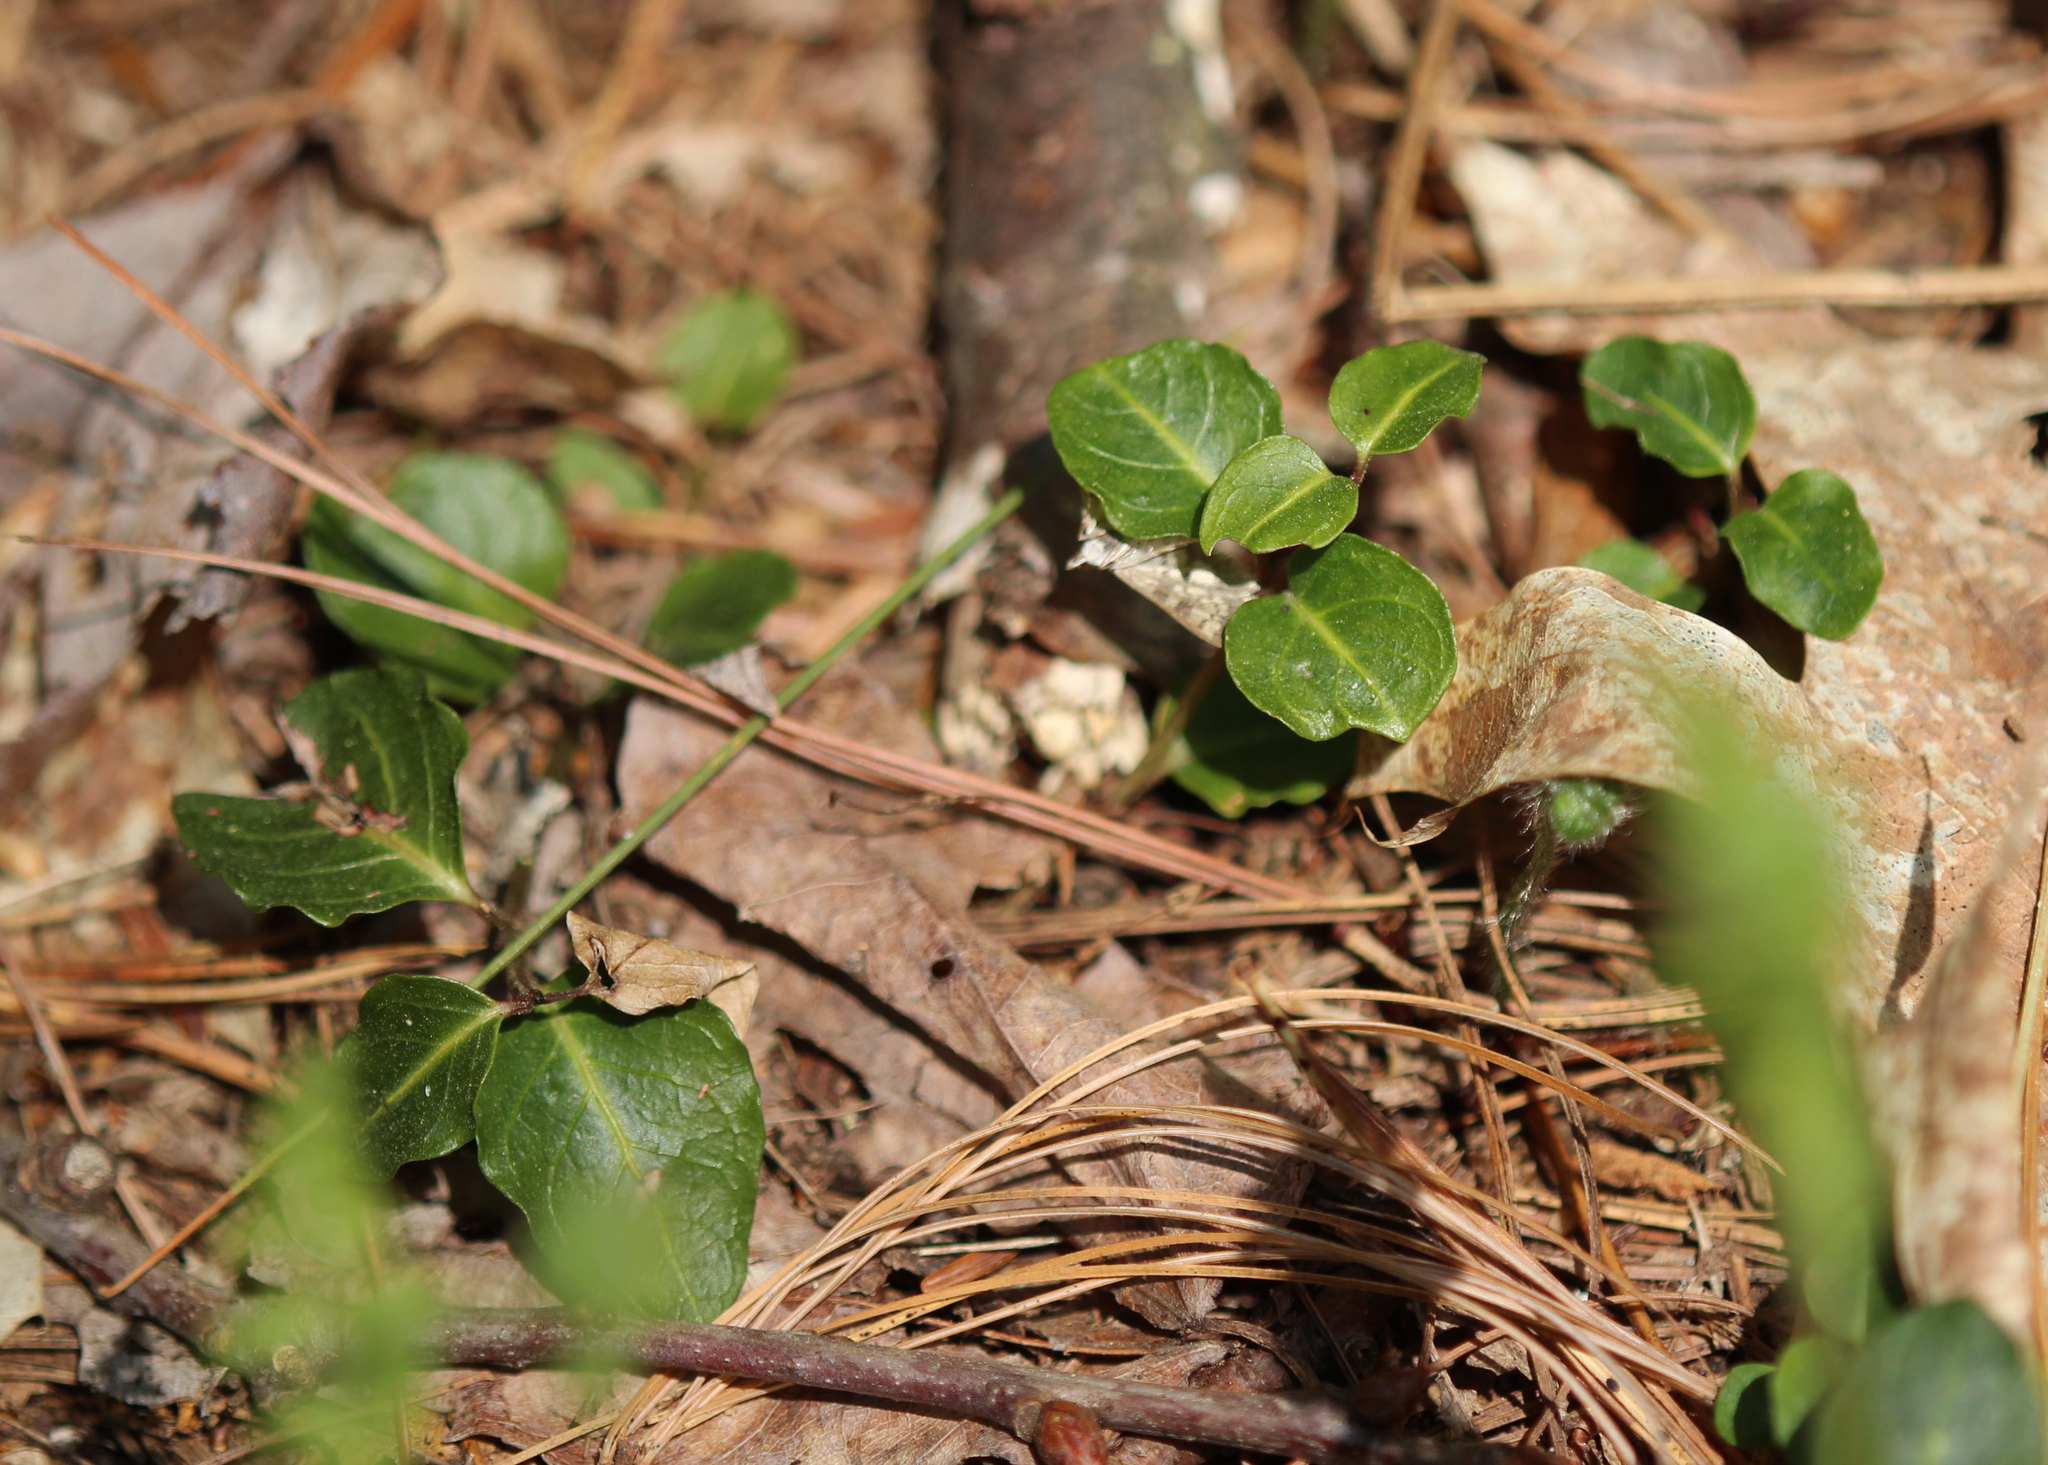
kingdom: Plantae
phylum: Tracheophyta
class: Magnoliopsida
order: Gentianales
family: Rubiaceae
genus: Mitchella
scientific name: Mitchella repens
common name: Partridge-berry
